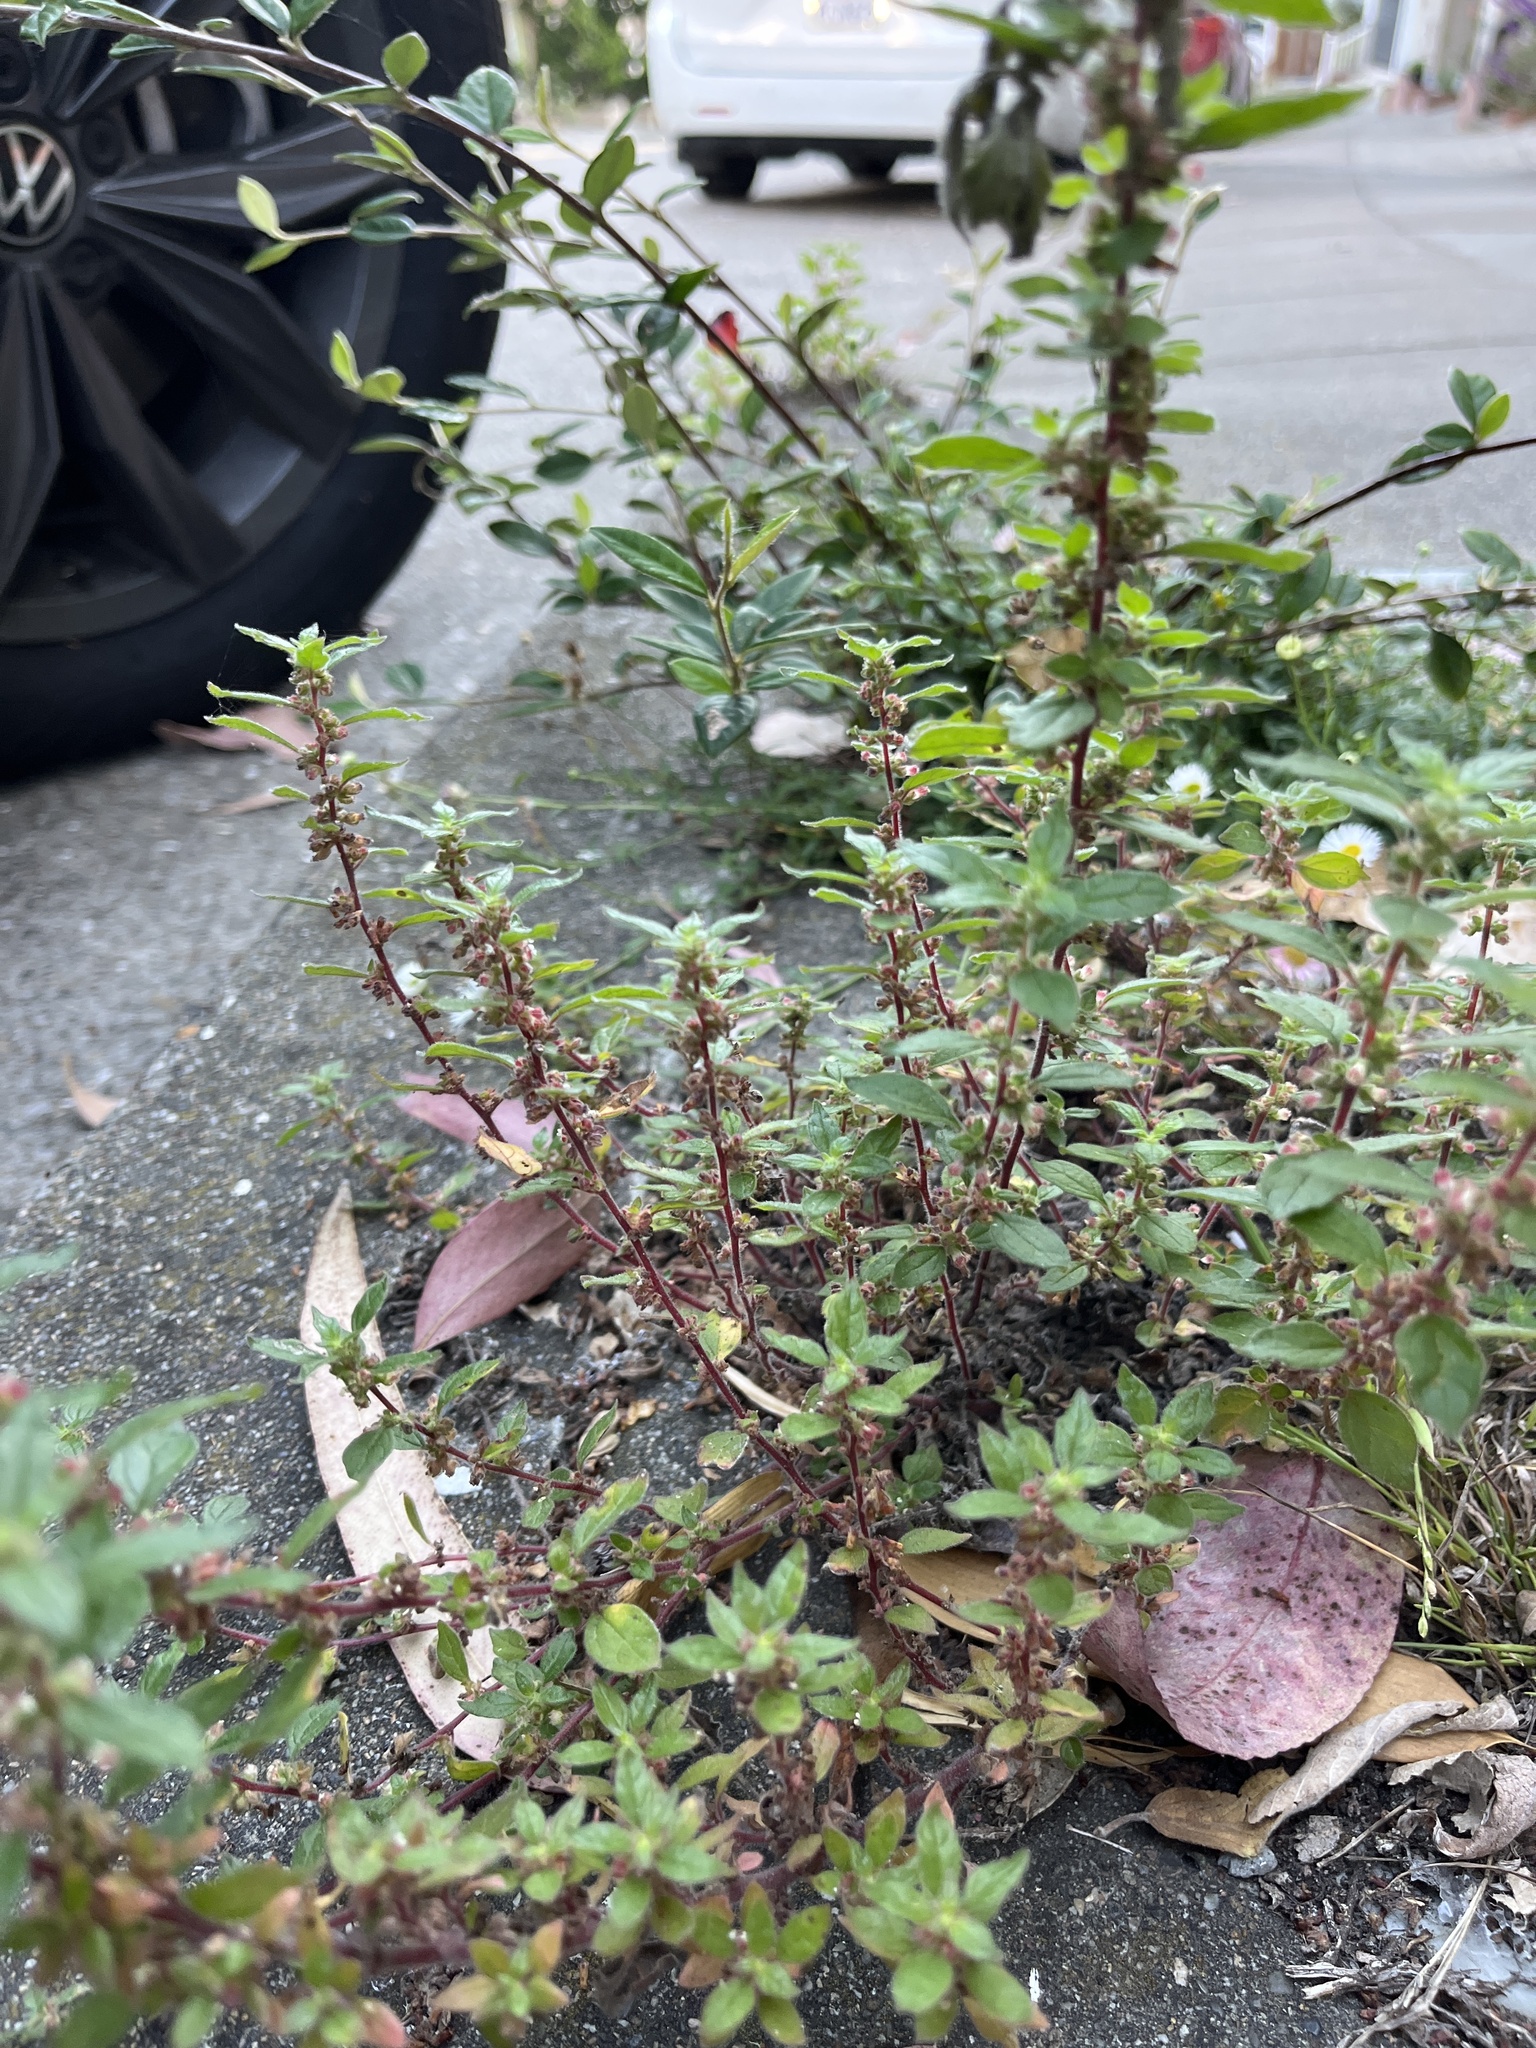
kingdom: Plantae
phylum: Tracheophyta
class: Magnoliopsida
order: Rosales
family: Urticaceae
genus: Parietaria
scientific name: Parietaria judaica
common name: Pellitory-of-the-wall
